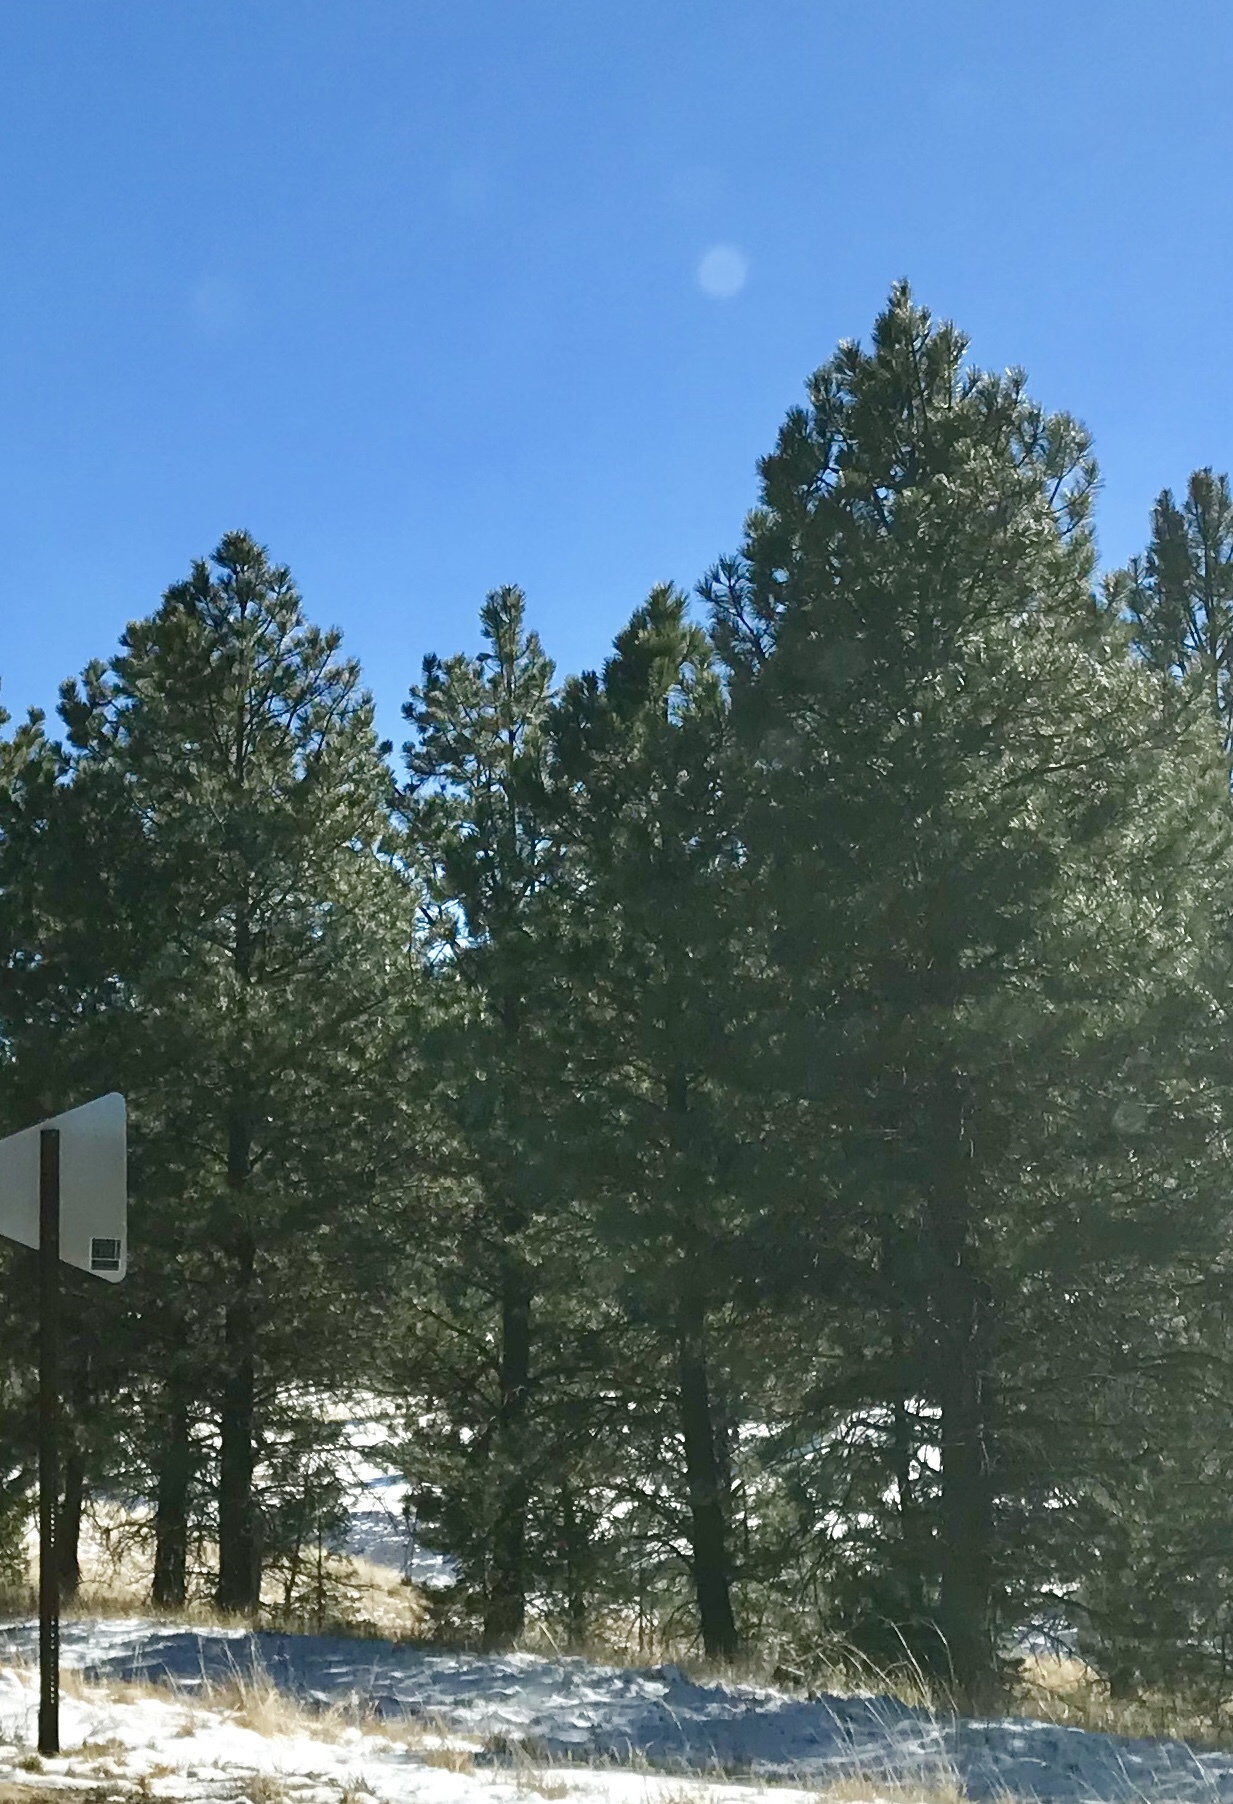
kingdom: Plantae
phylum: Tracheophyta
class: Pinopsida
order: Pinales
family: Pinaceae
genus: Pinus
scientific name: Pinus ponderosa
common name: Western yellow-pine
